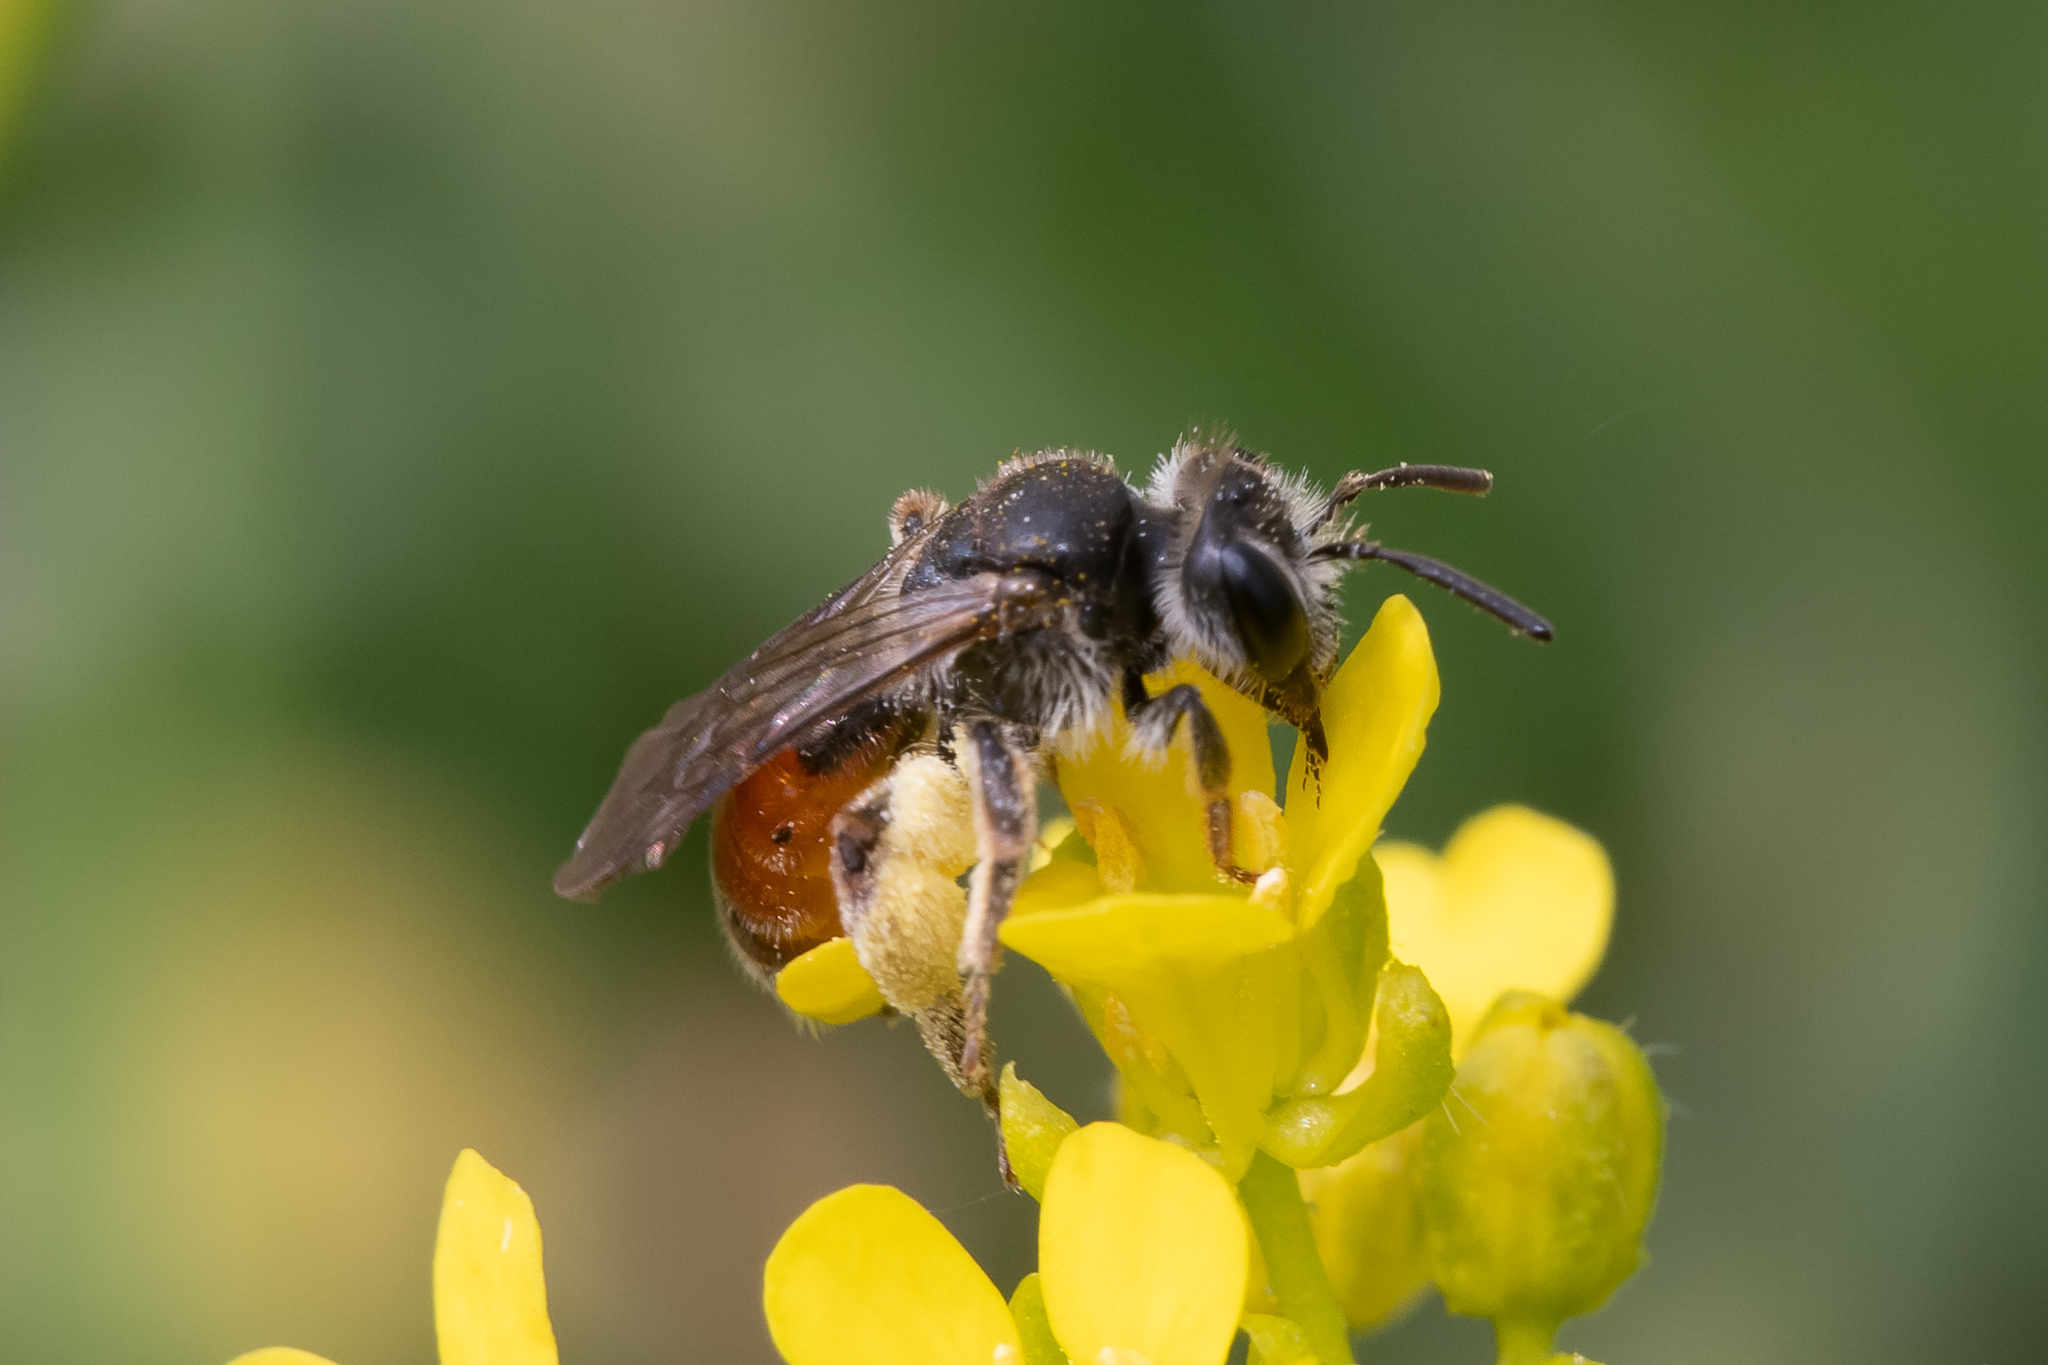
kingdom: Animalia
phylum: Arthropoda
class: Insecta
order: Hymenoptera
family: Andrenidae
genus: Andrena
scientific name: Andrena labiata
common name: Red-girdled mining bee
